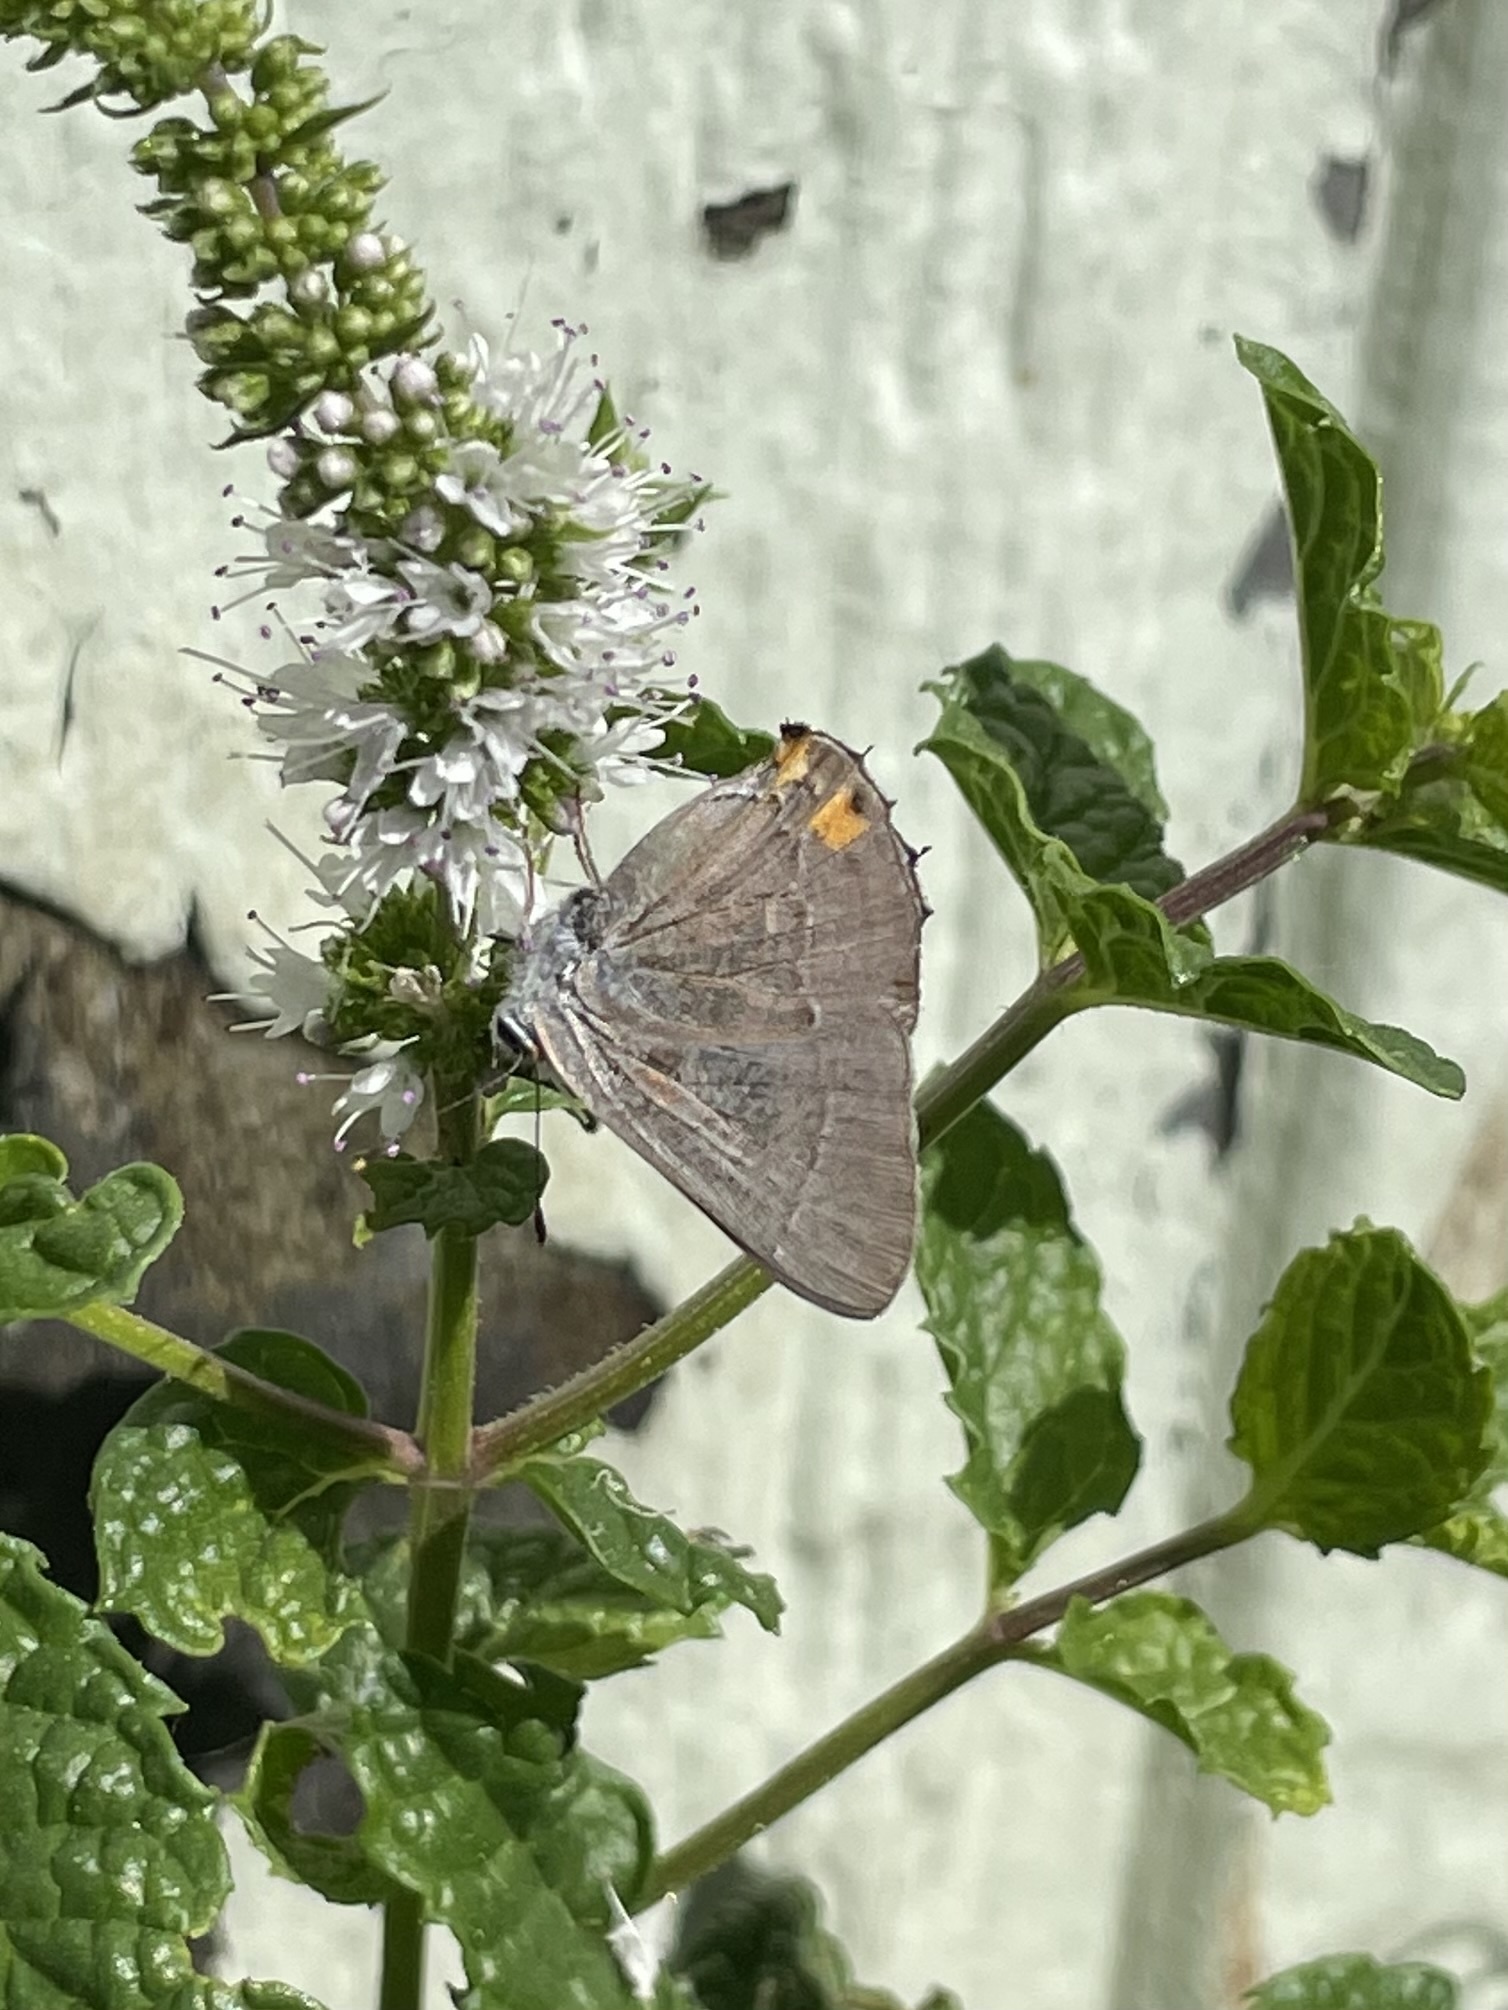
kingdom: Animalia
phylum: Arthropoda
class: Insecta
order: Lepidoptera
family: Lycaenidae
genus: Strymon
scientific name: Strymon melinus
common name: Gray hairstreak
